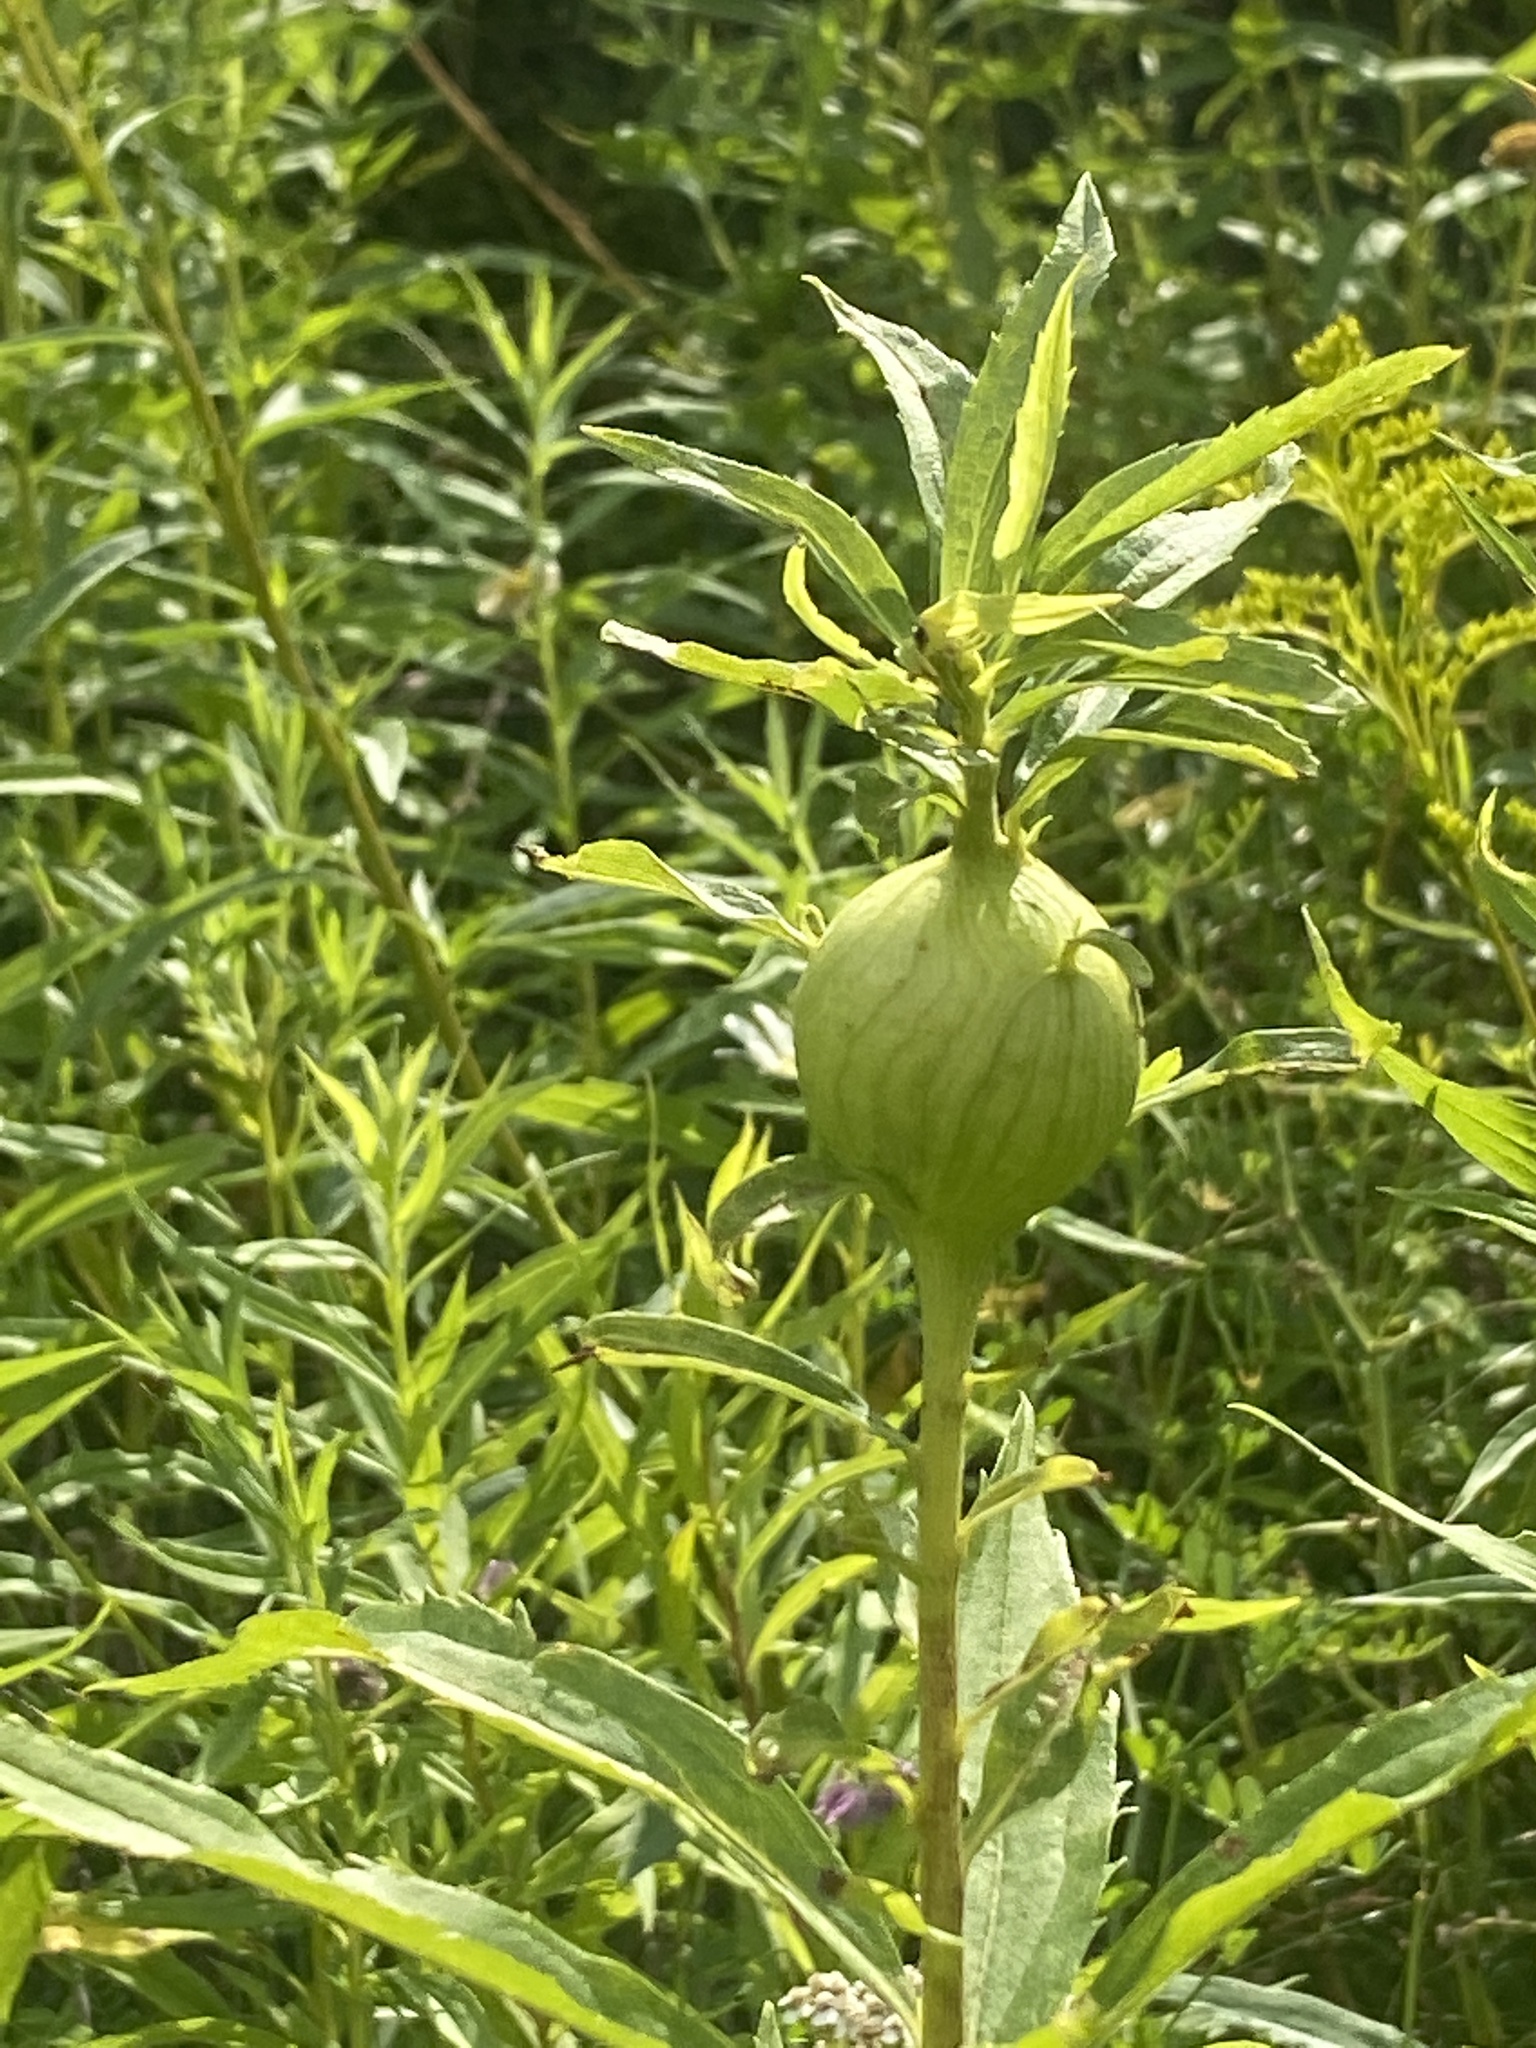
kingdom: Animalia
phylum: Arthropoda
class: Insecta
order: Diptera
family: Tephritidae
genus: Eurosta
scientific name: Eurosta solidaginis
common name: Goldenrod gall fly
